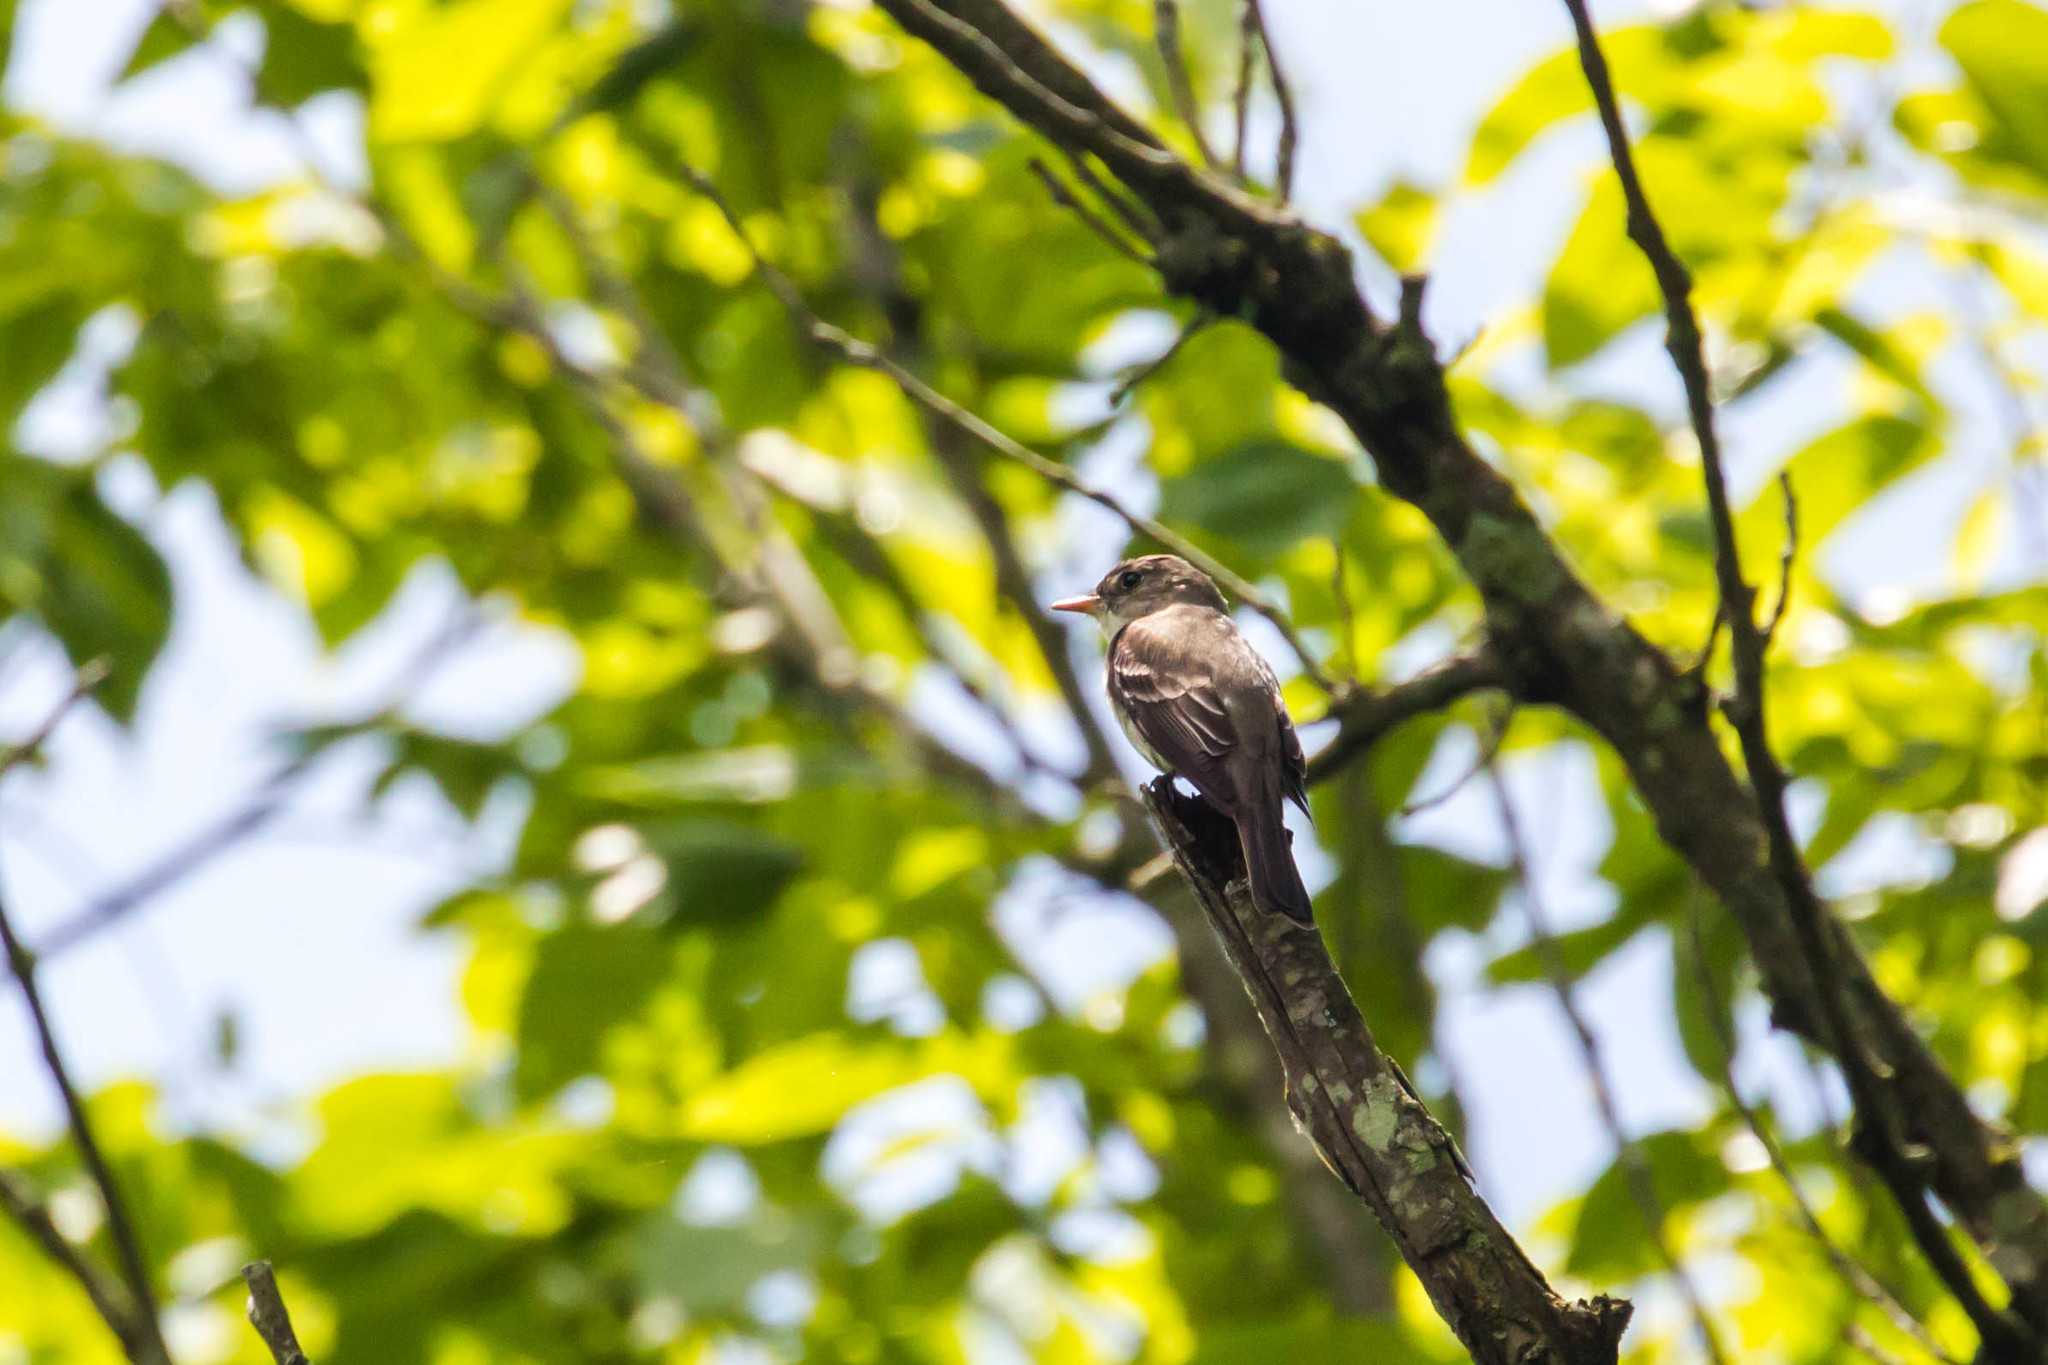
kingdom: Animalia
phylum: Chordata
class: Aves
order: Passeriformes
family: Tyrannidae
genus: Contopus
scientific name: Contopus virens
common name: Eastern wood-pewee
